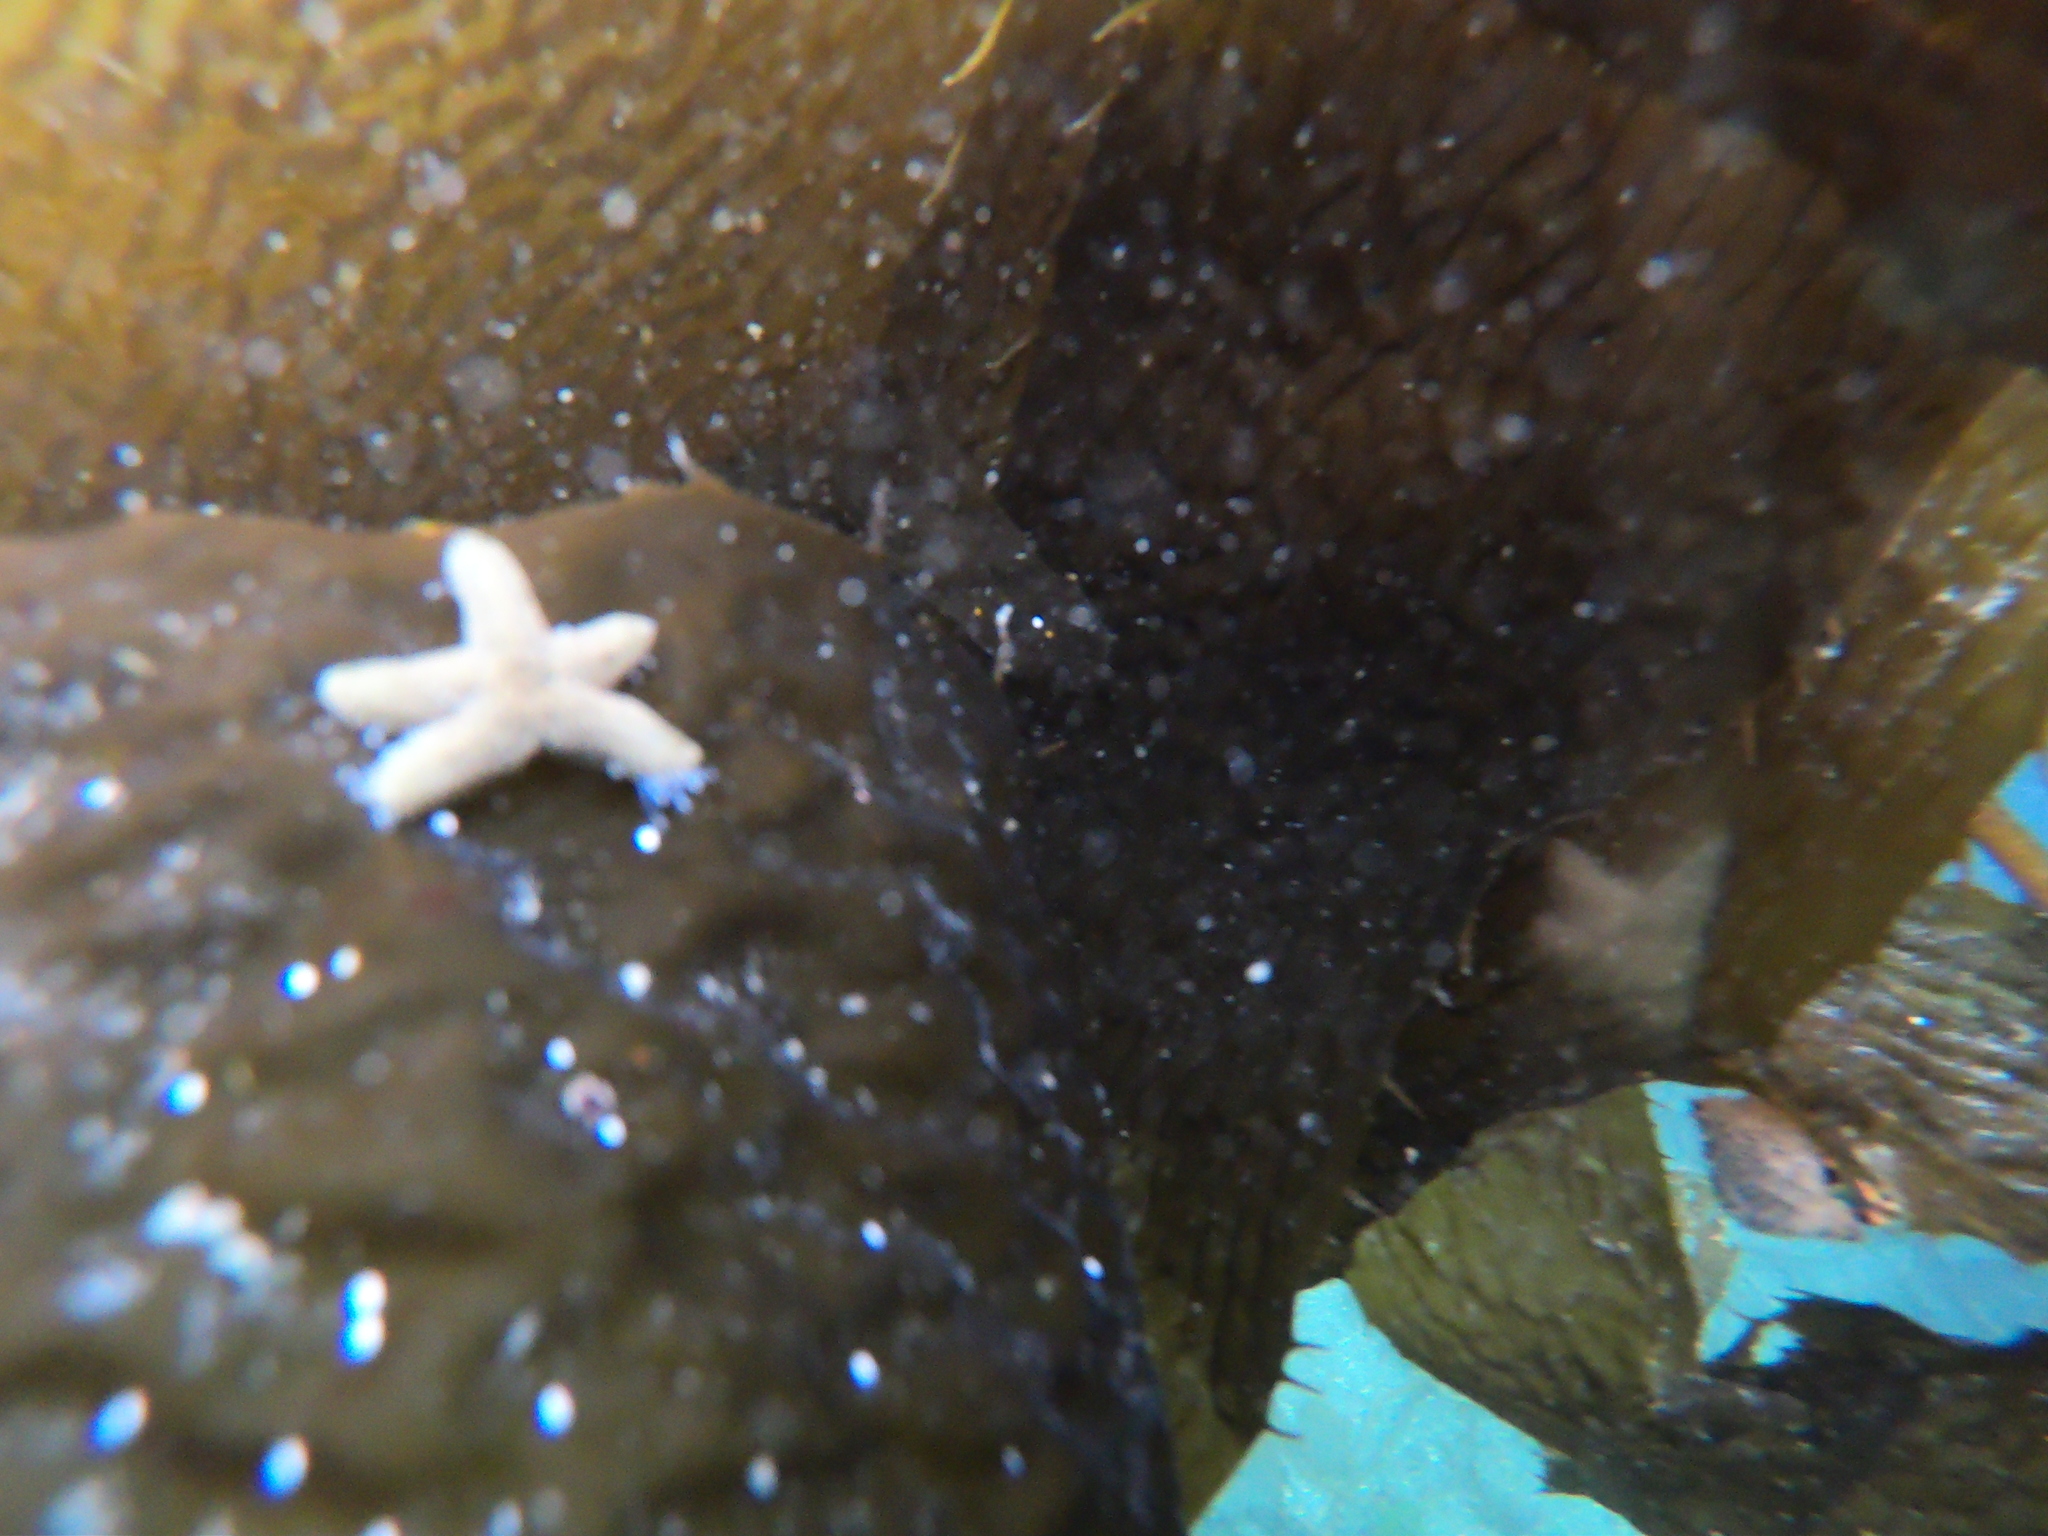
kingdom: Animalia
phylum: Echinodermata
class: Asteroidea
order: Valvatida
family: Asterinidae
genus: Cycethra
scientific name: Cycethra verrucosa
